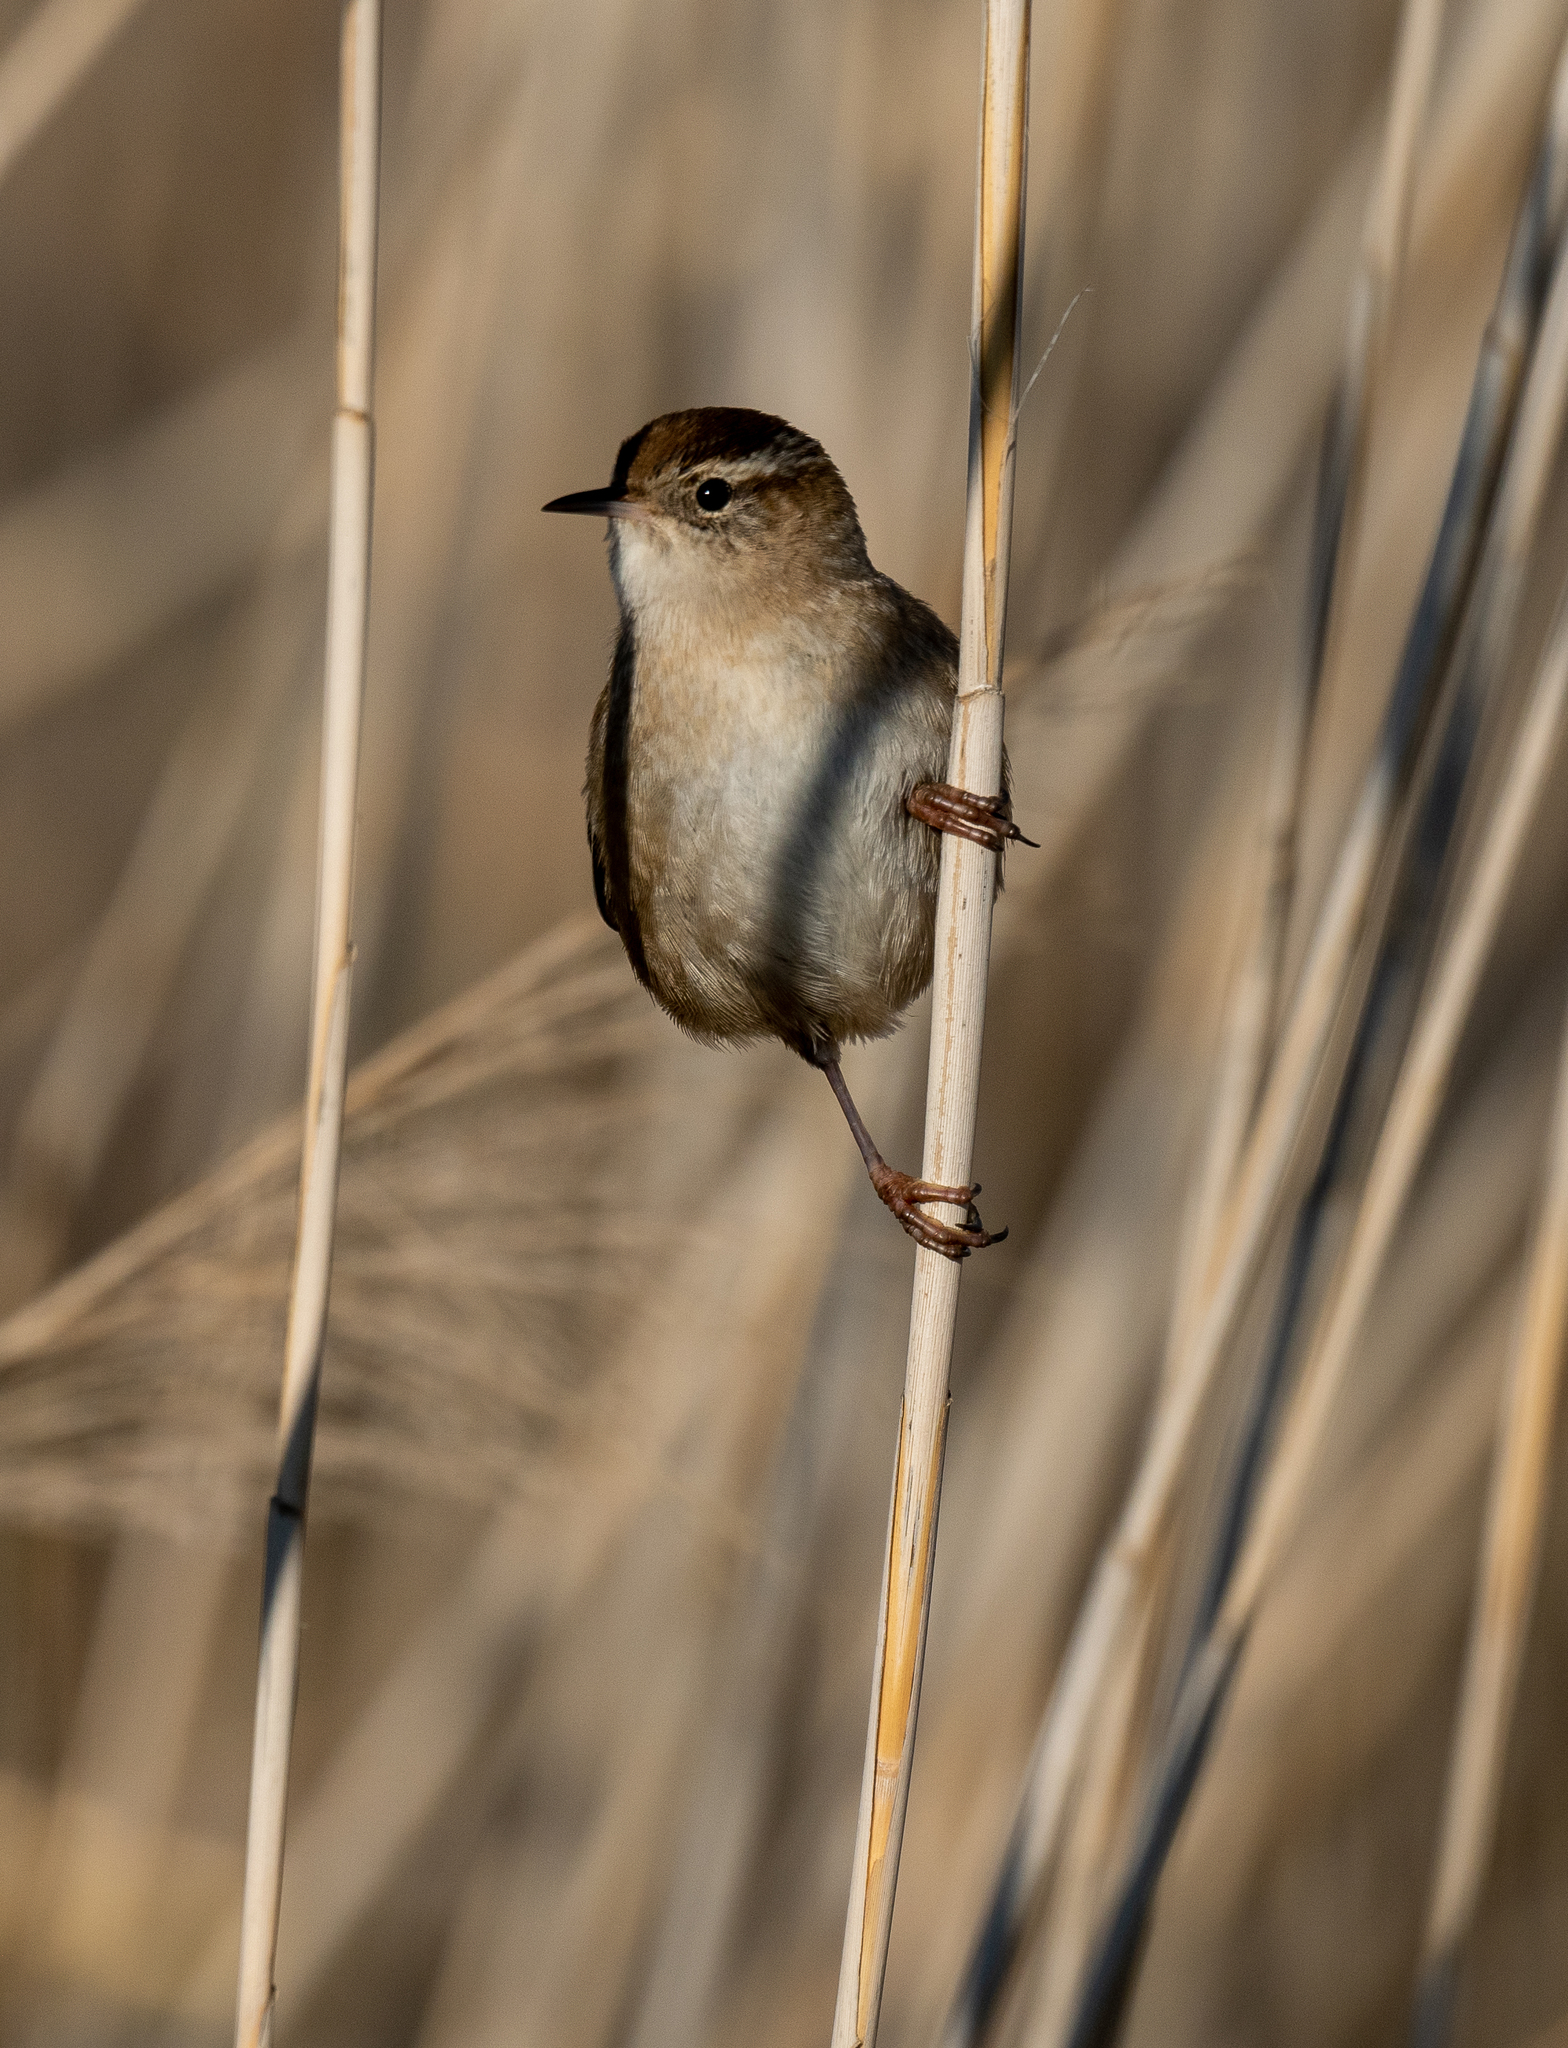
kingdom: Animalia
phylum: Chordata
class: Aves
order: Passeriformes
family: Troglodytidae
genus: Cistothorus
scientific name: Cistothorus palustris
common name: Marsh wren
